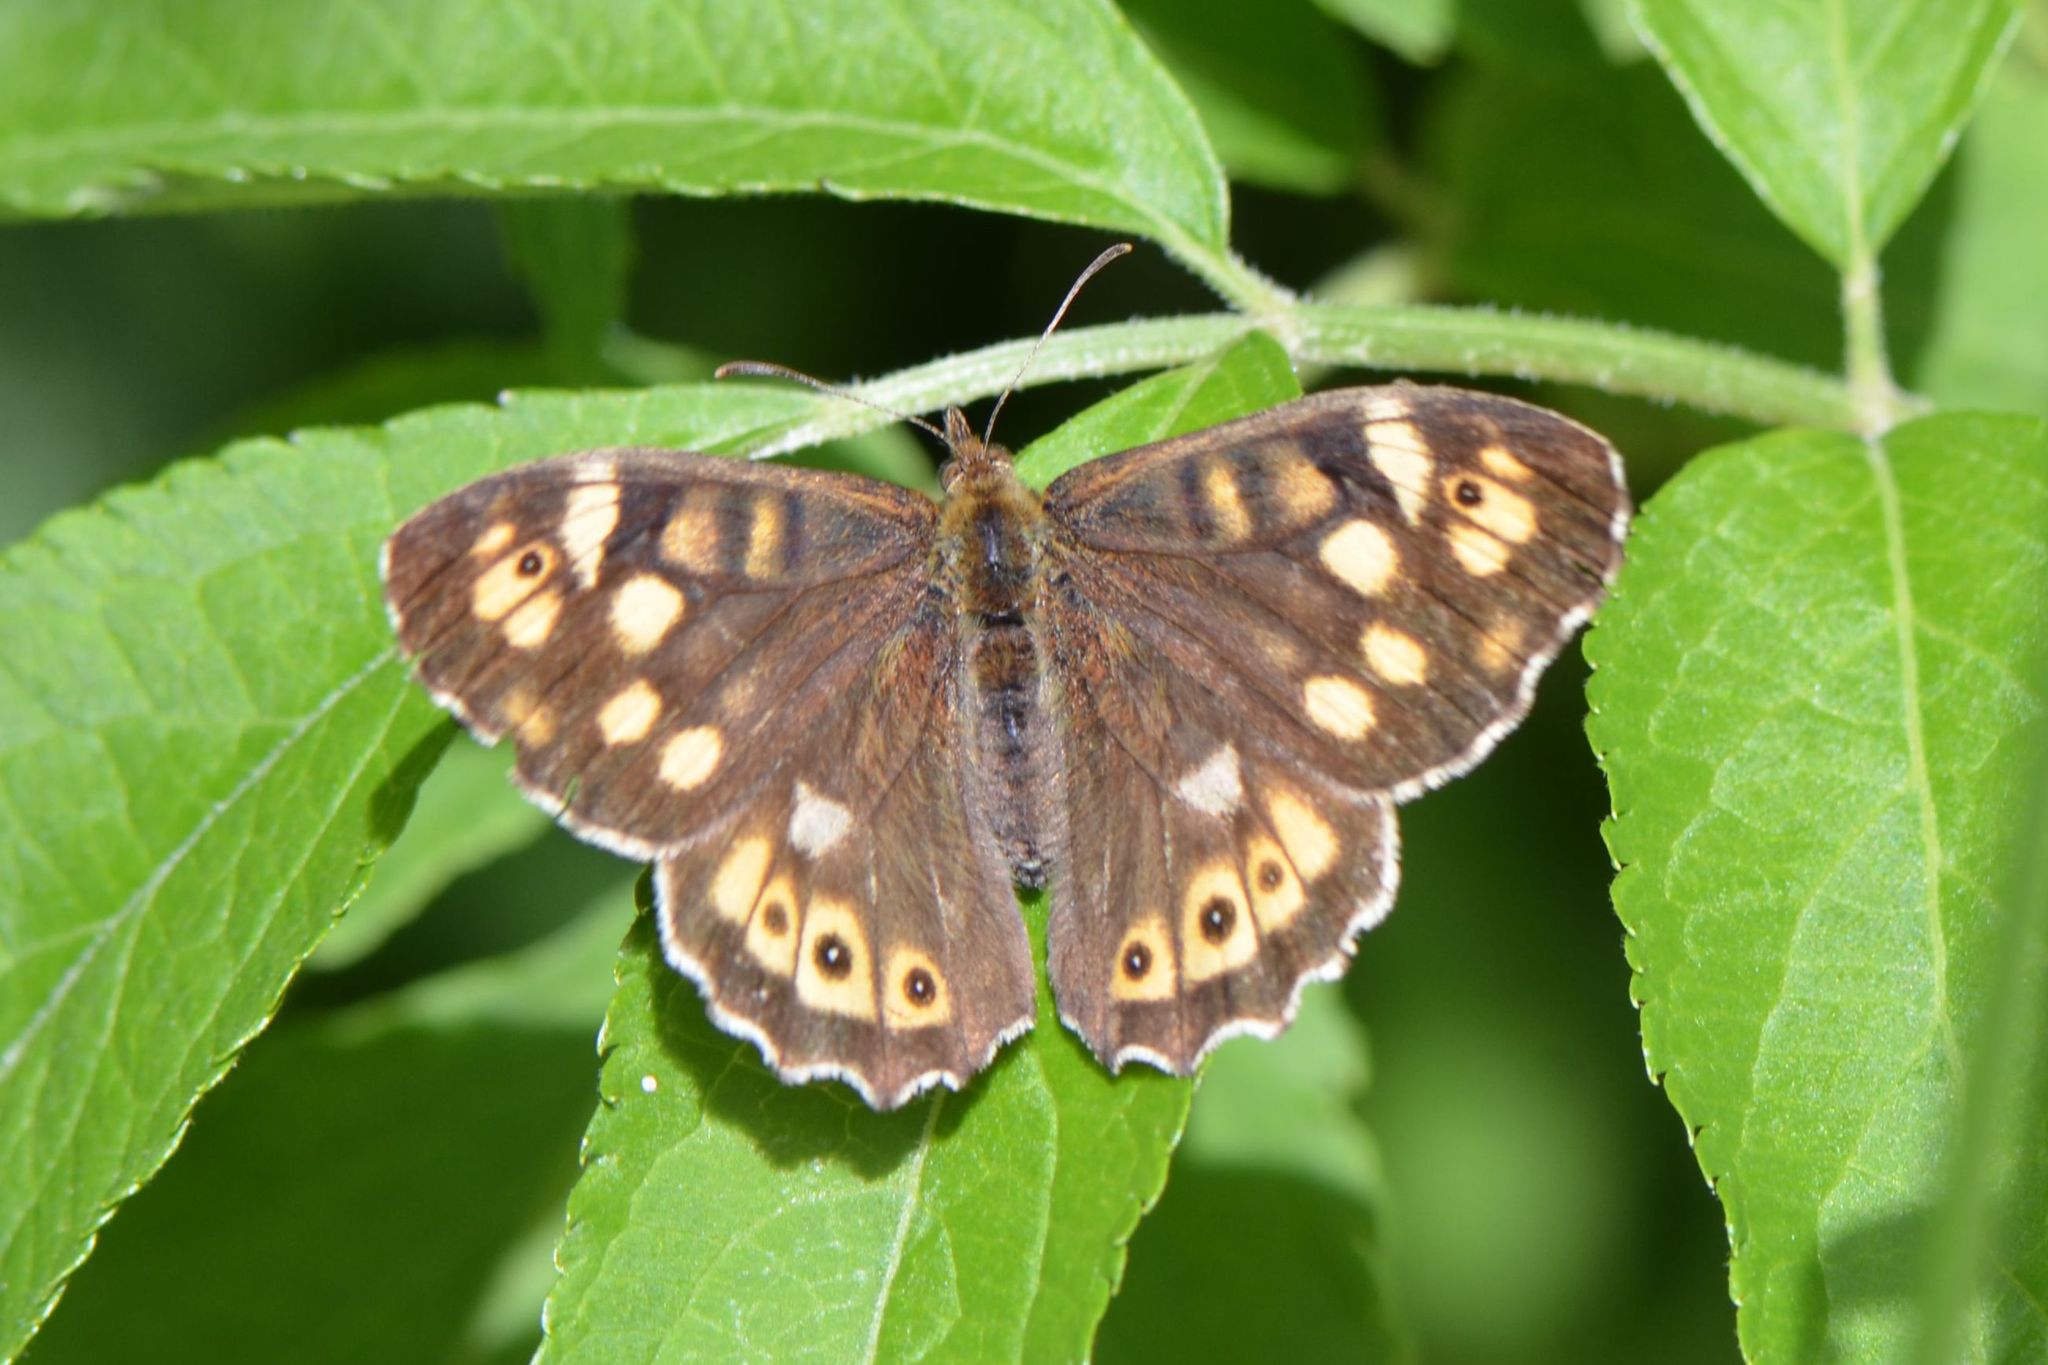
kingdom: Animalia
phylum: Arthropoda
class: Insecta
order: Lepidoptera
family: Nymphalidae
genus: Pararge
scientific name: Pararge aegeria
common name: Speckled wood
